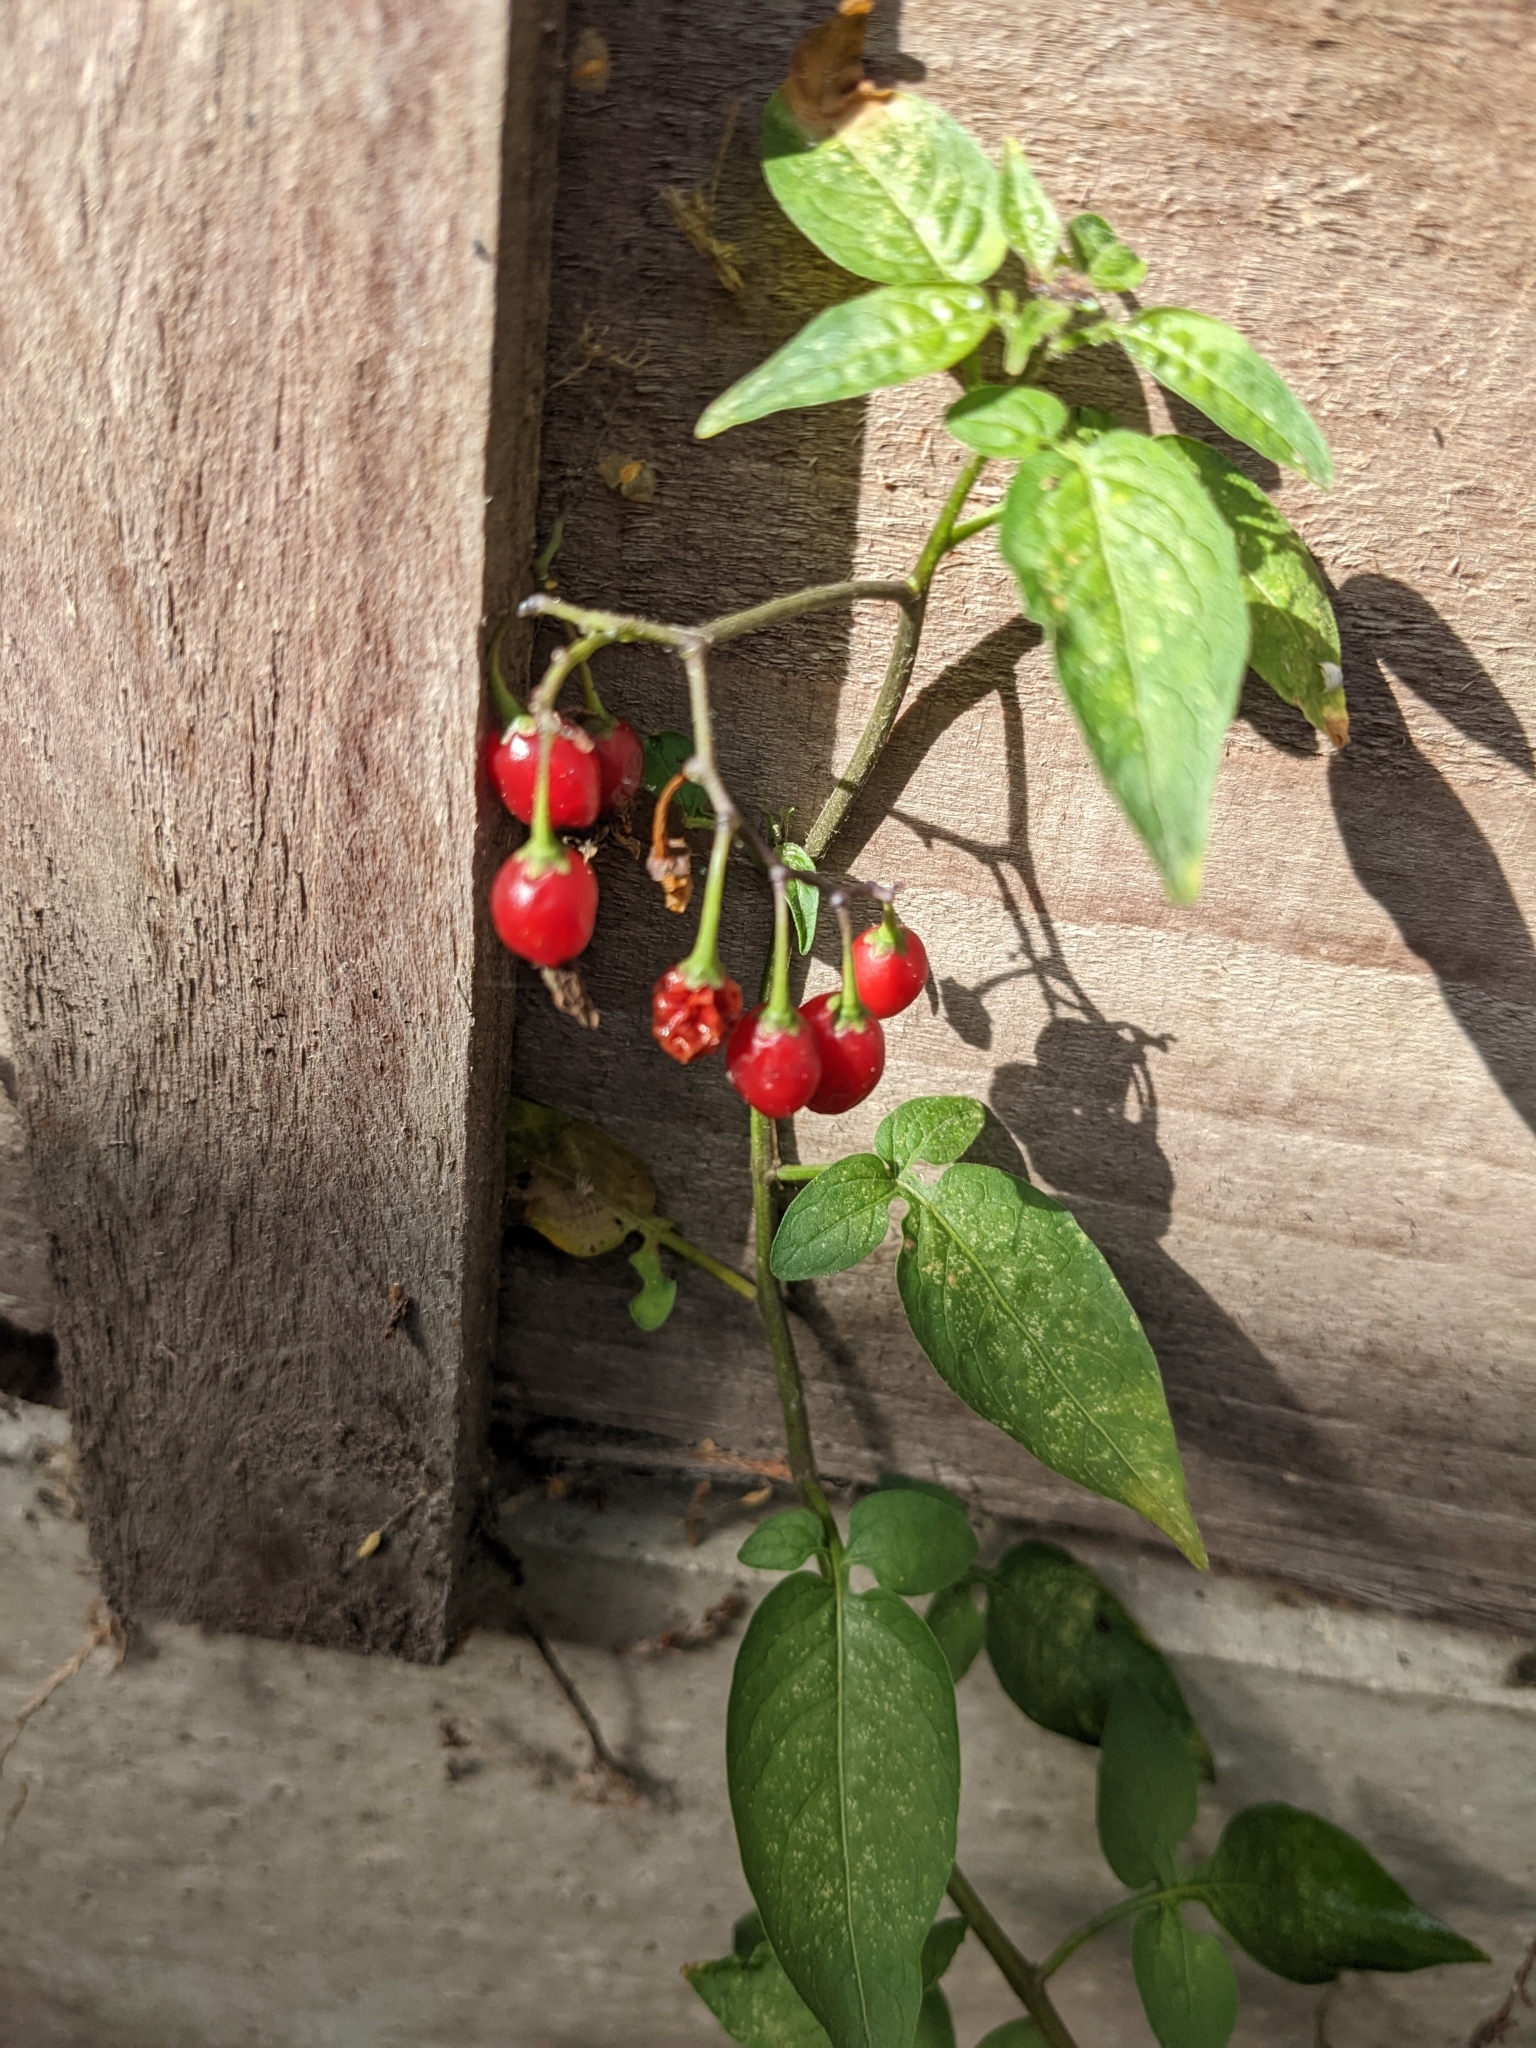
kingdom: Plantae
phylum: Tracheophyta
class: Magnoliopsida
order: Solanales
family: Solanaceae
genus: Solanum
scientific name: Solanum dulcamara
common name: Climbing nightshade
